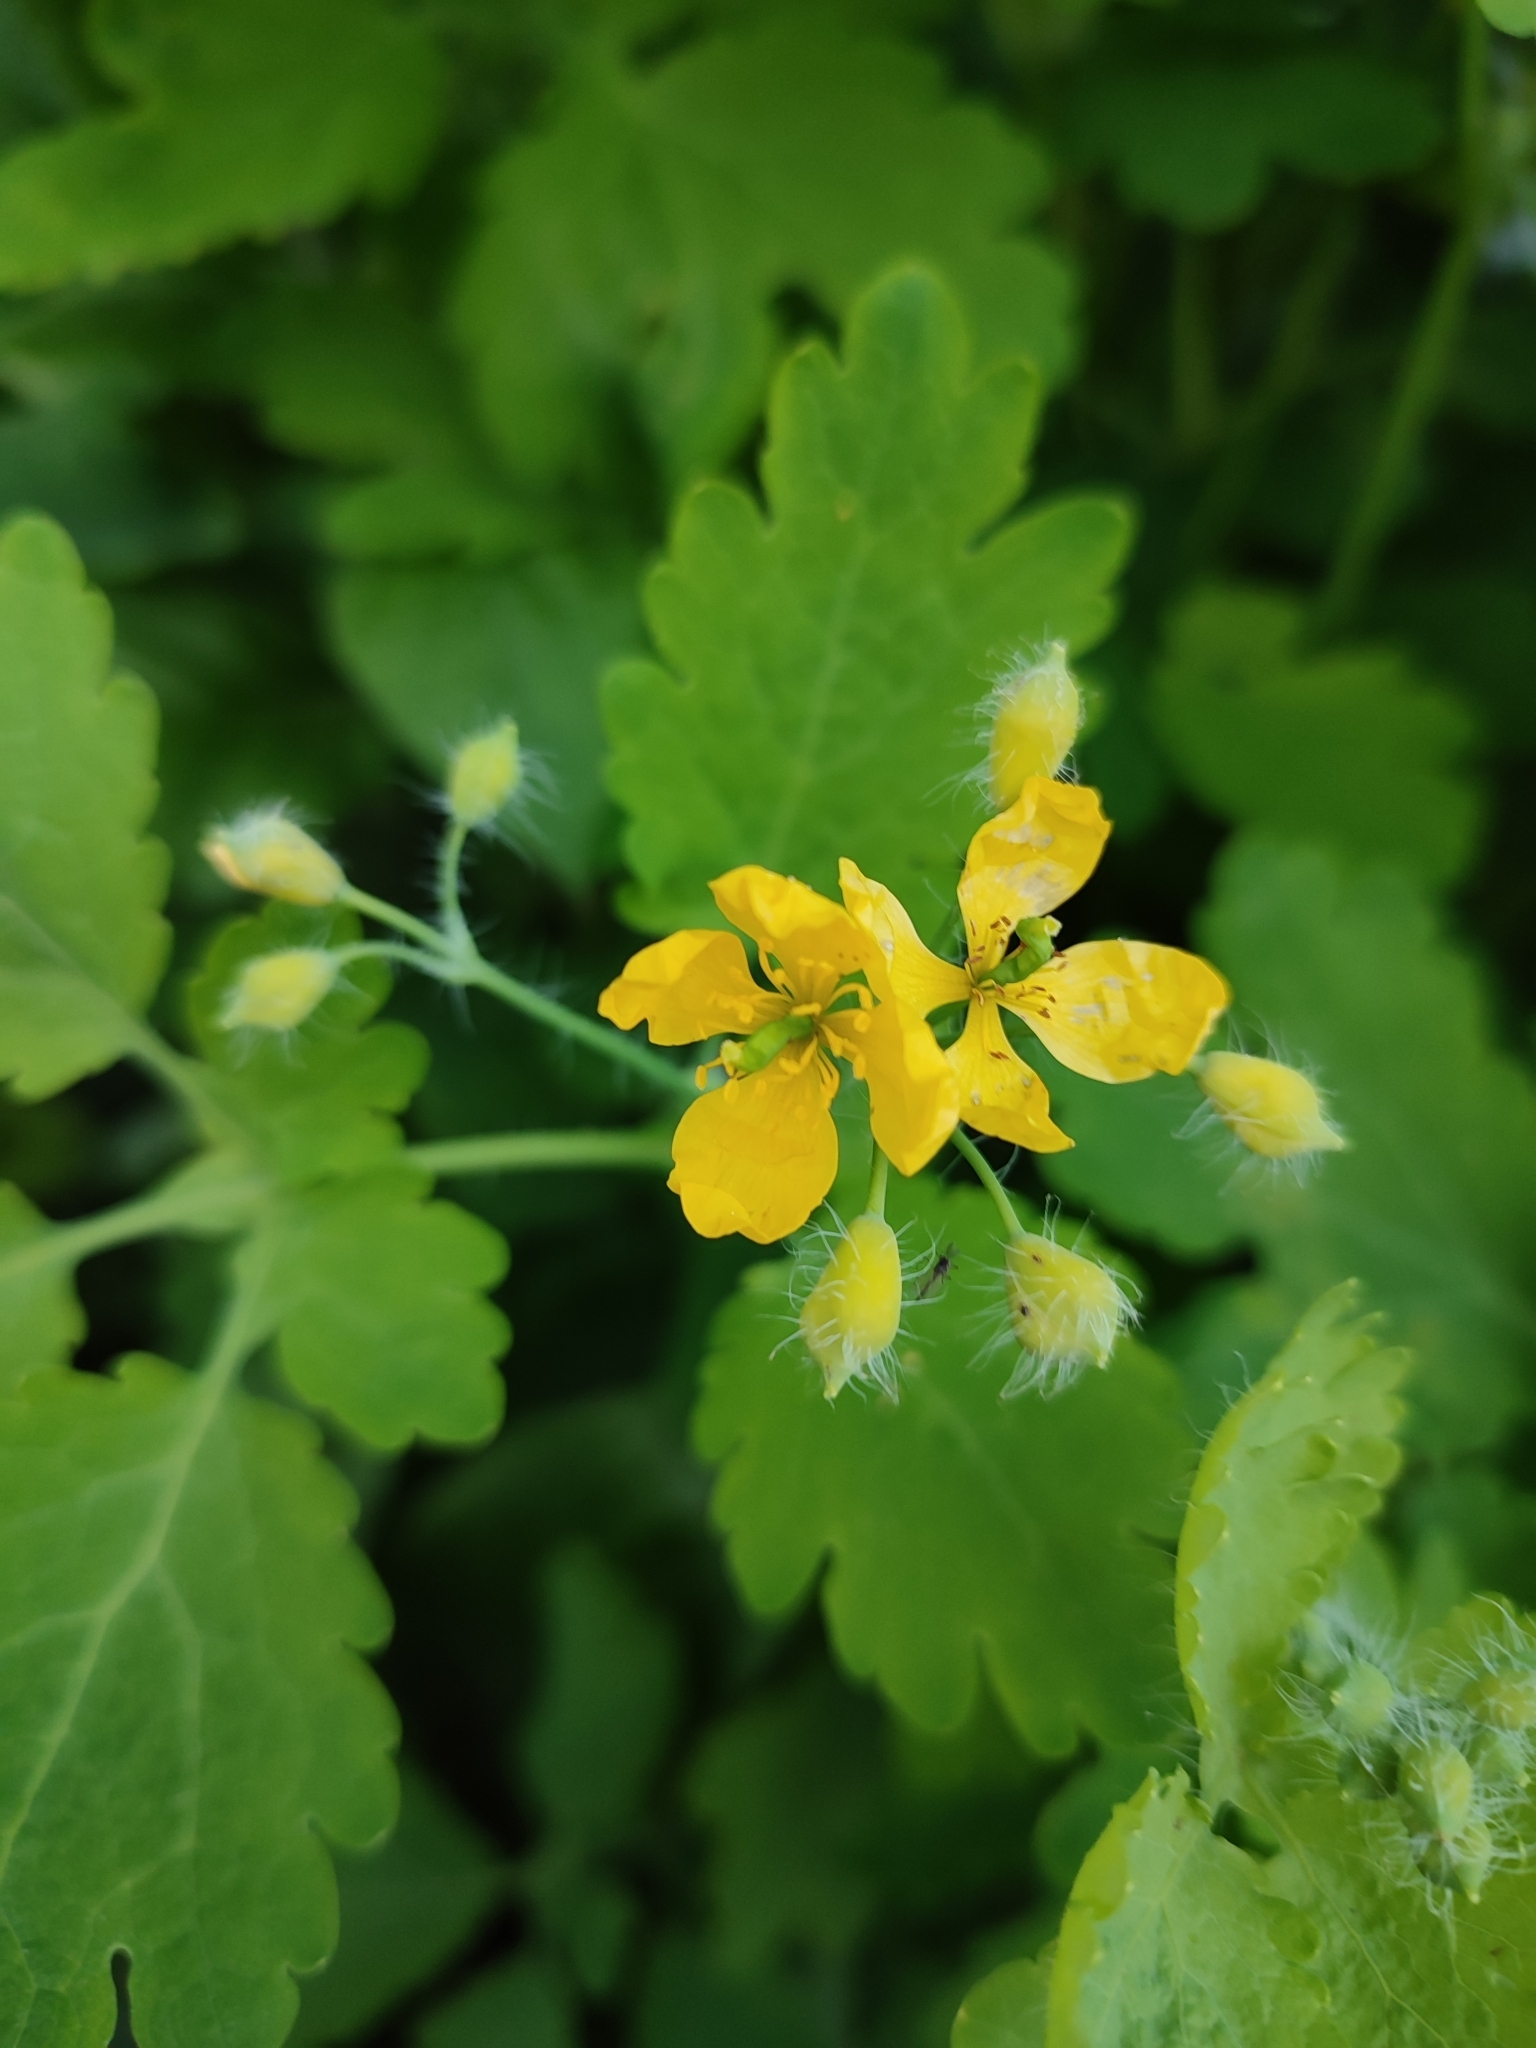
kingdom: Plantae
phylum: Tracheophyta
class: Magnoliopsida
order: Ranunculales
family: Papaveraceae
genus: Chelidonium
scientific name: Chelidonium majus
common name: Greater celandine
